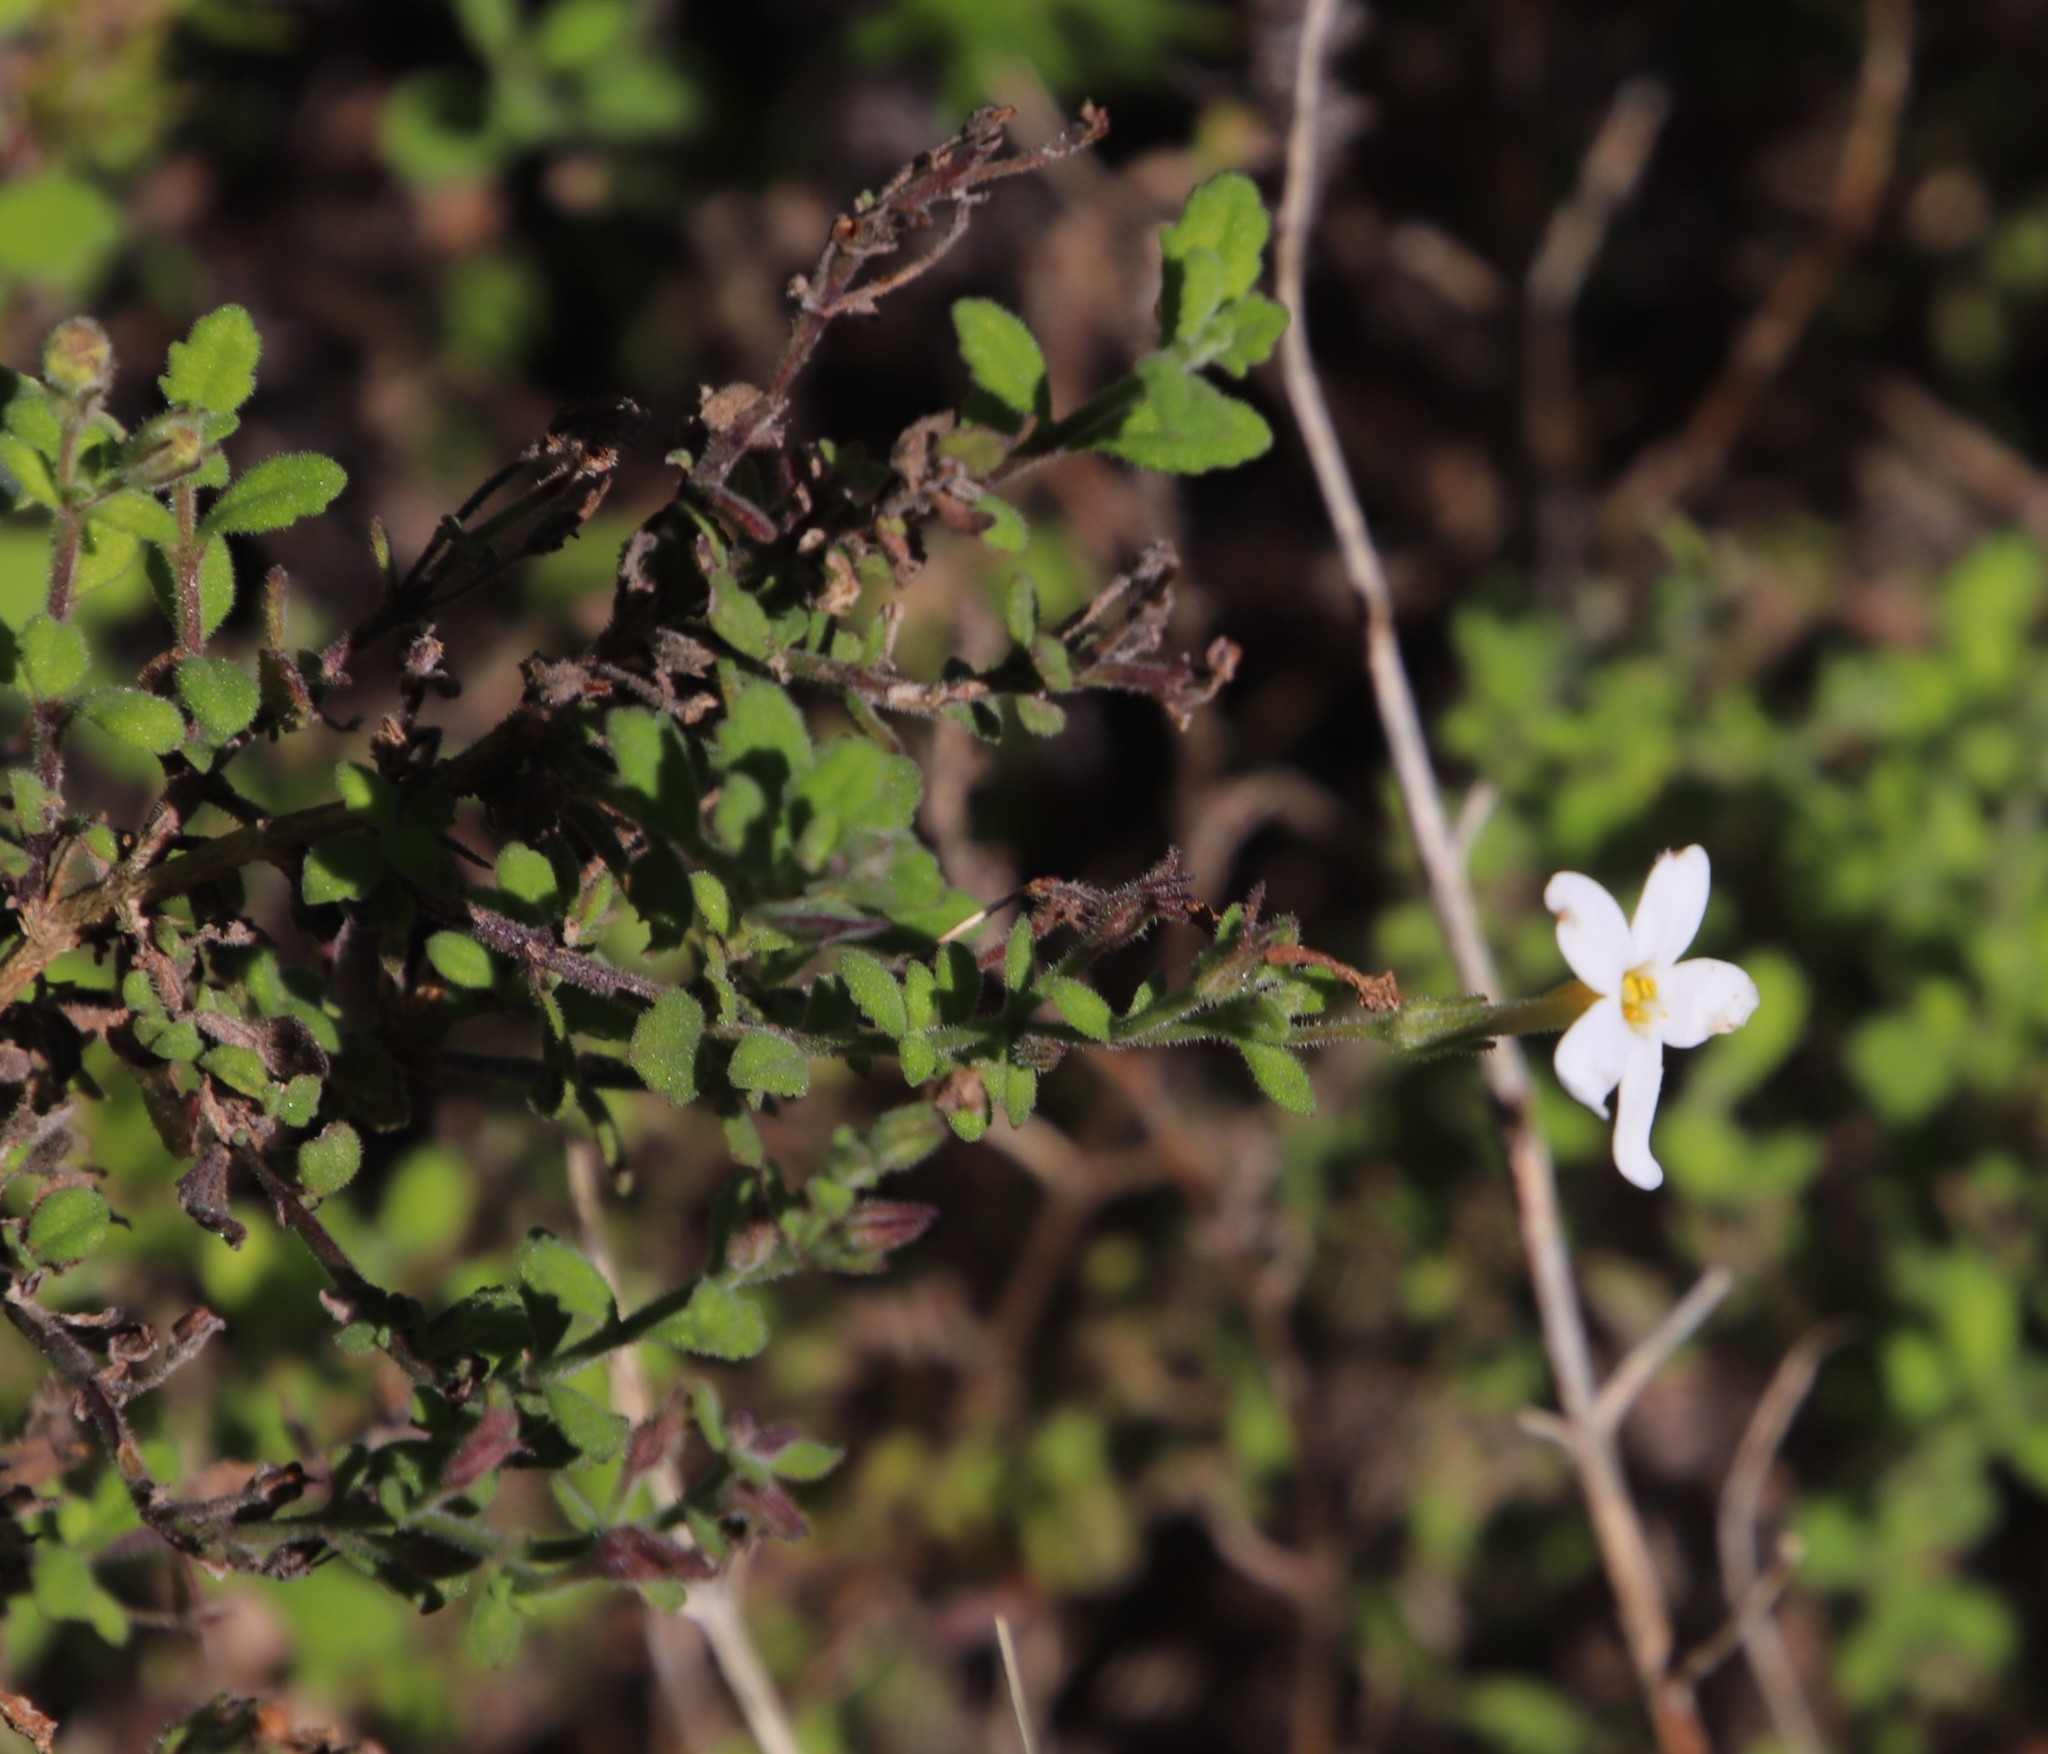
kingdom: Plantae
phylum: Tracheophyta
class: Magnoliopsida
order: Lamiales
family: Scrophulariaceae
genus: Chaenostoma
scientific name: Chaenostoma hispidum
